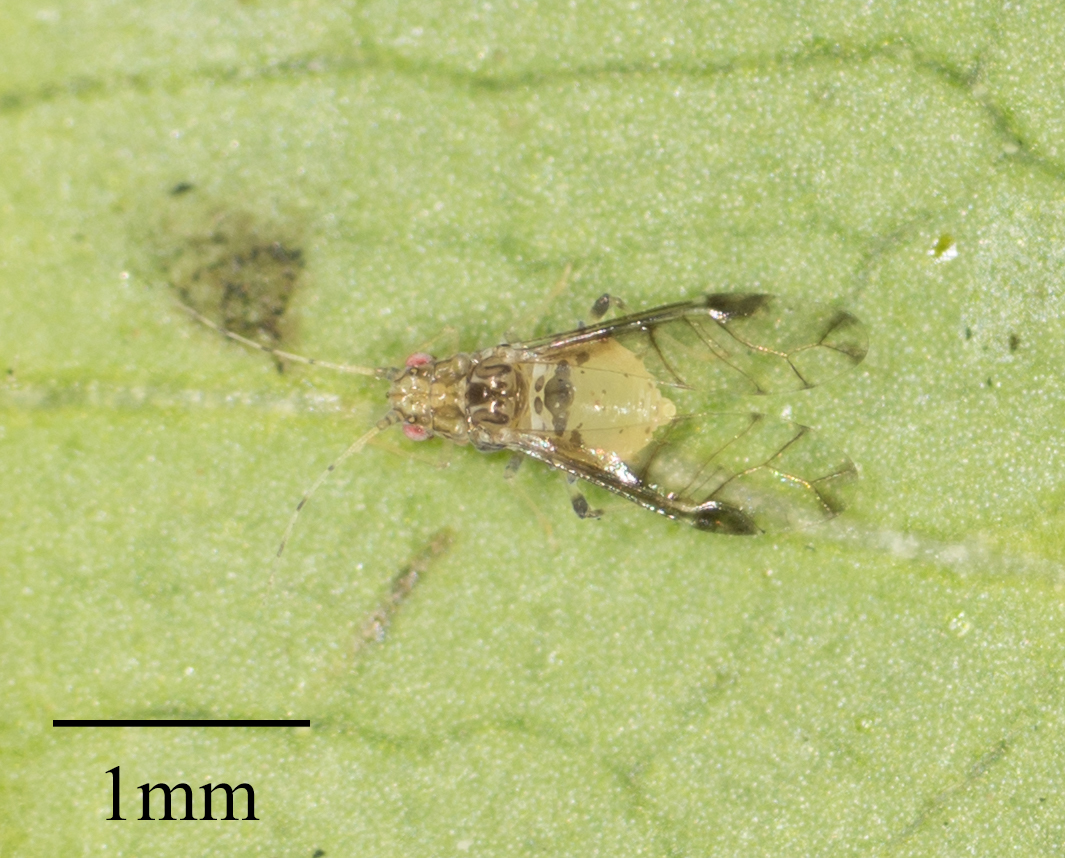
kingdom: Animalia
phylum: Arthropoda
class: Insecta
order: Hemiptera
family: Aphididae
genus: Sarucallis
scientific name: Sarucallis kahawaluokalani
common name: Crapemyrtle aphid
